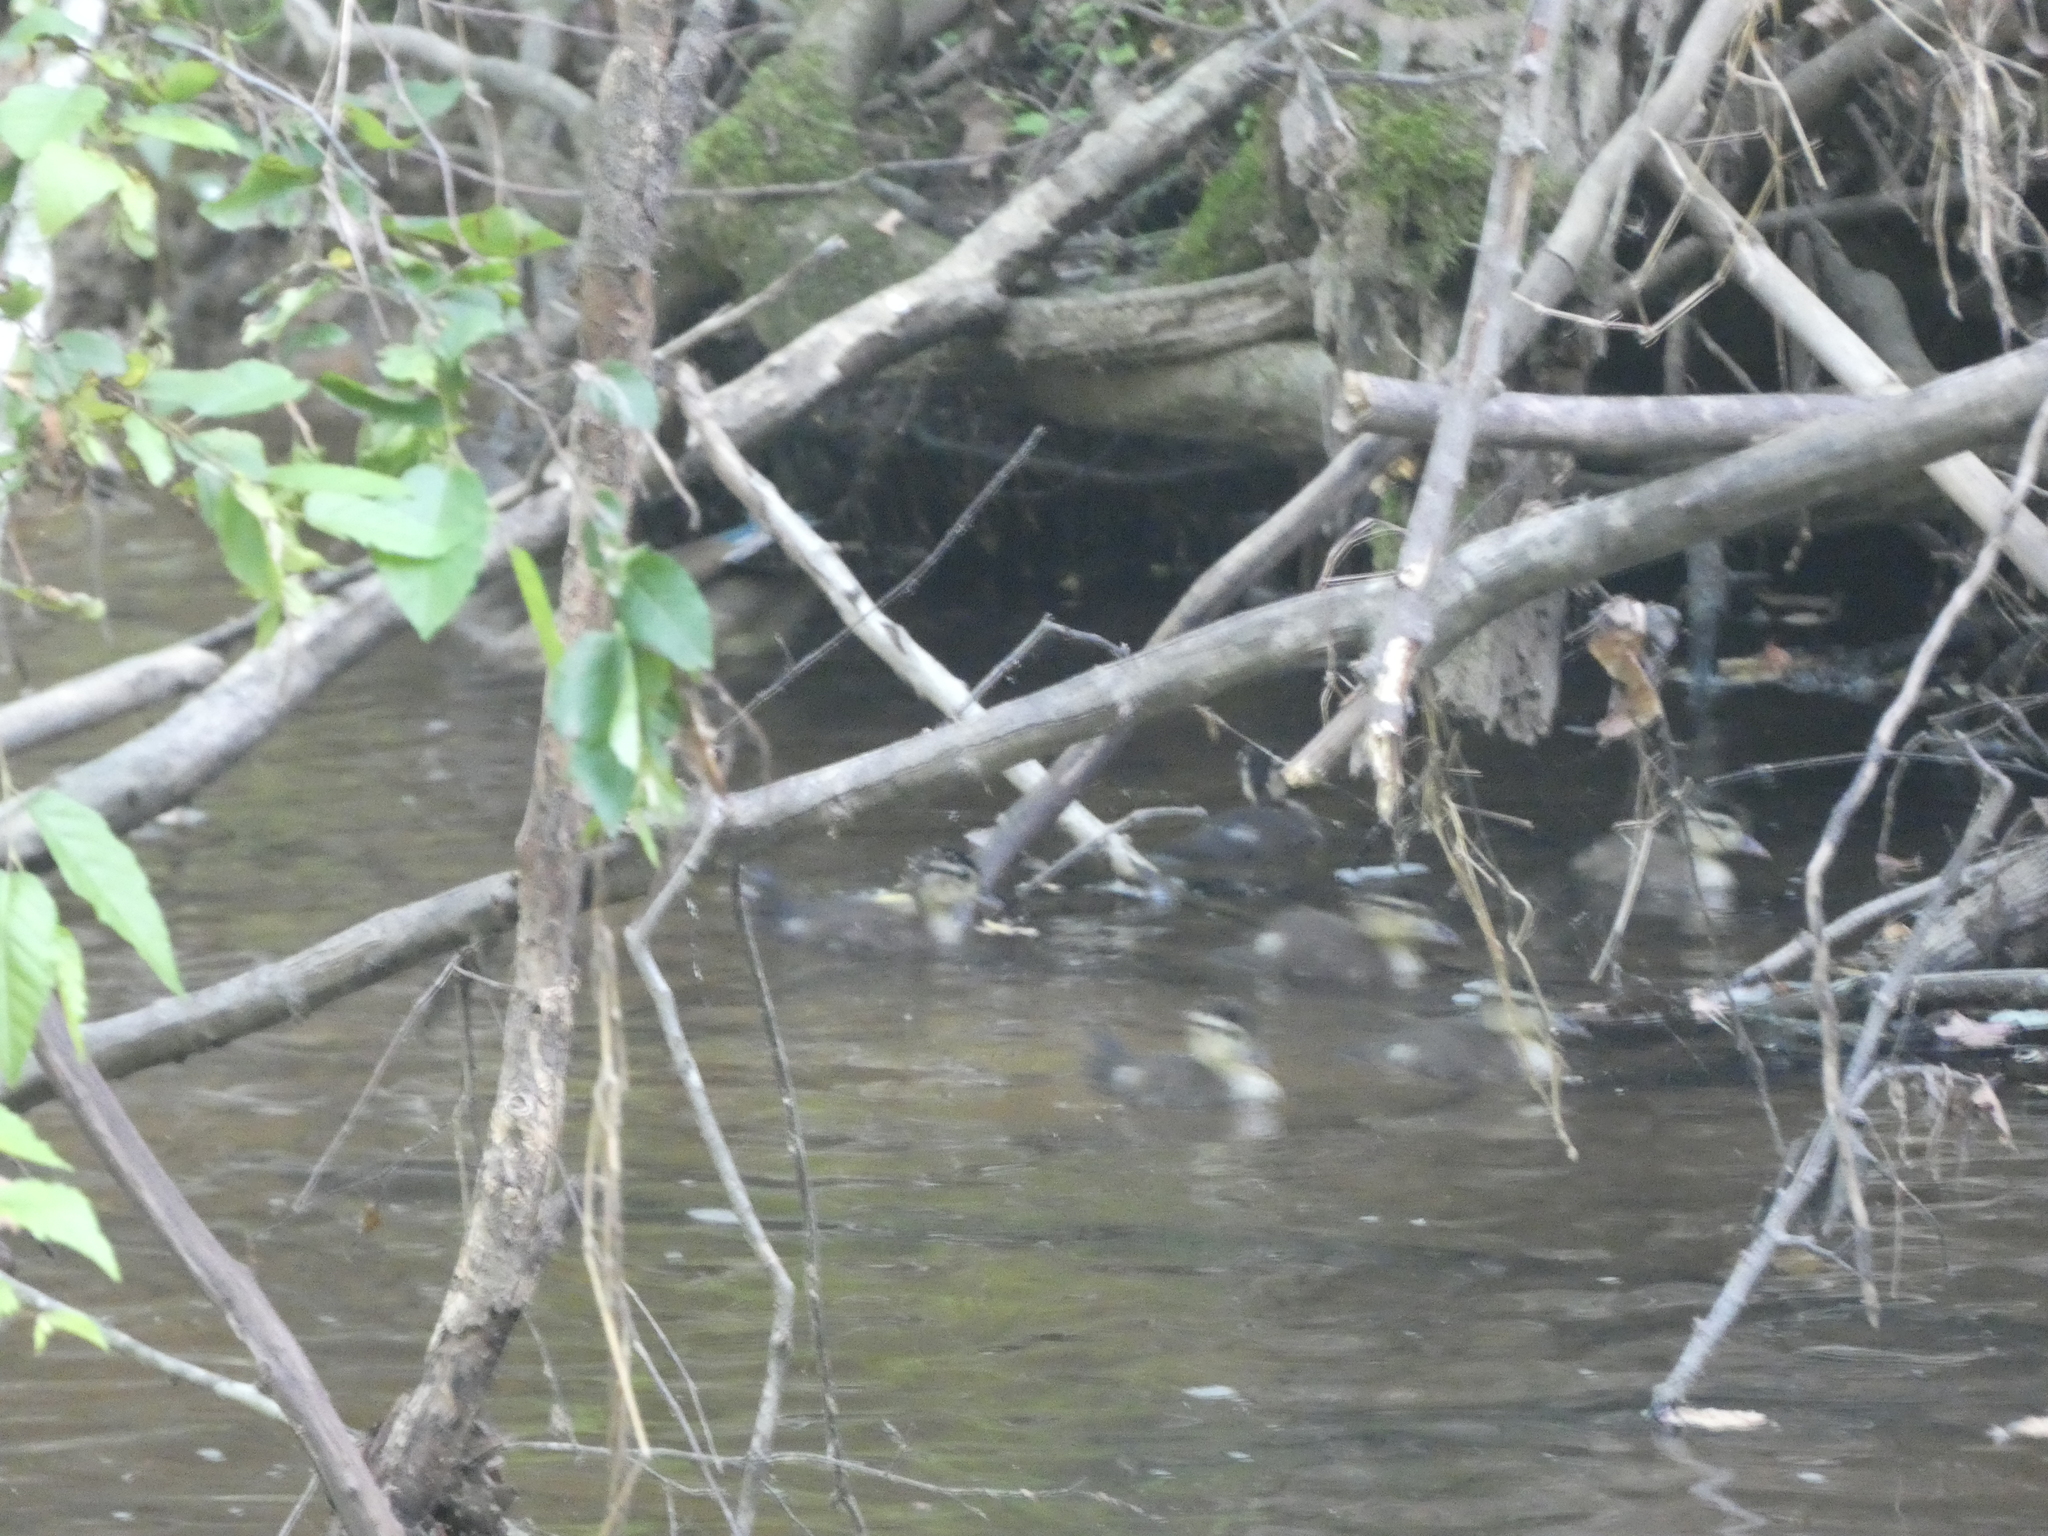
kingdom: Animalia
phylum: Chordata
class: Aves
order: Anseriformes
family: Anatidae
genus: Aix
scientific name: Aix sponsa
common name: Wood duck
